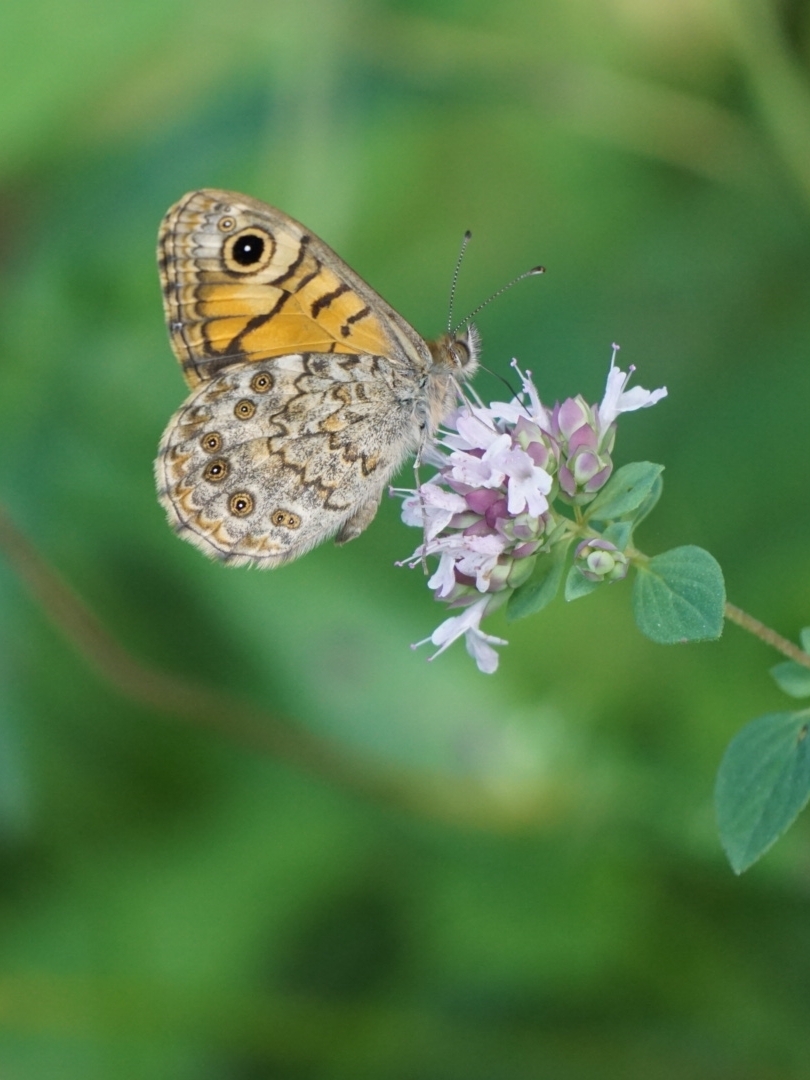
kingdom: Animalia
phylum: Arthropoda
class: Insecta
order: Lepidoptera
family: Nymphalidae
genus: Pararge
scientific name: Pararge Lasiommata megera
